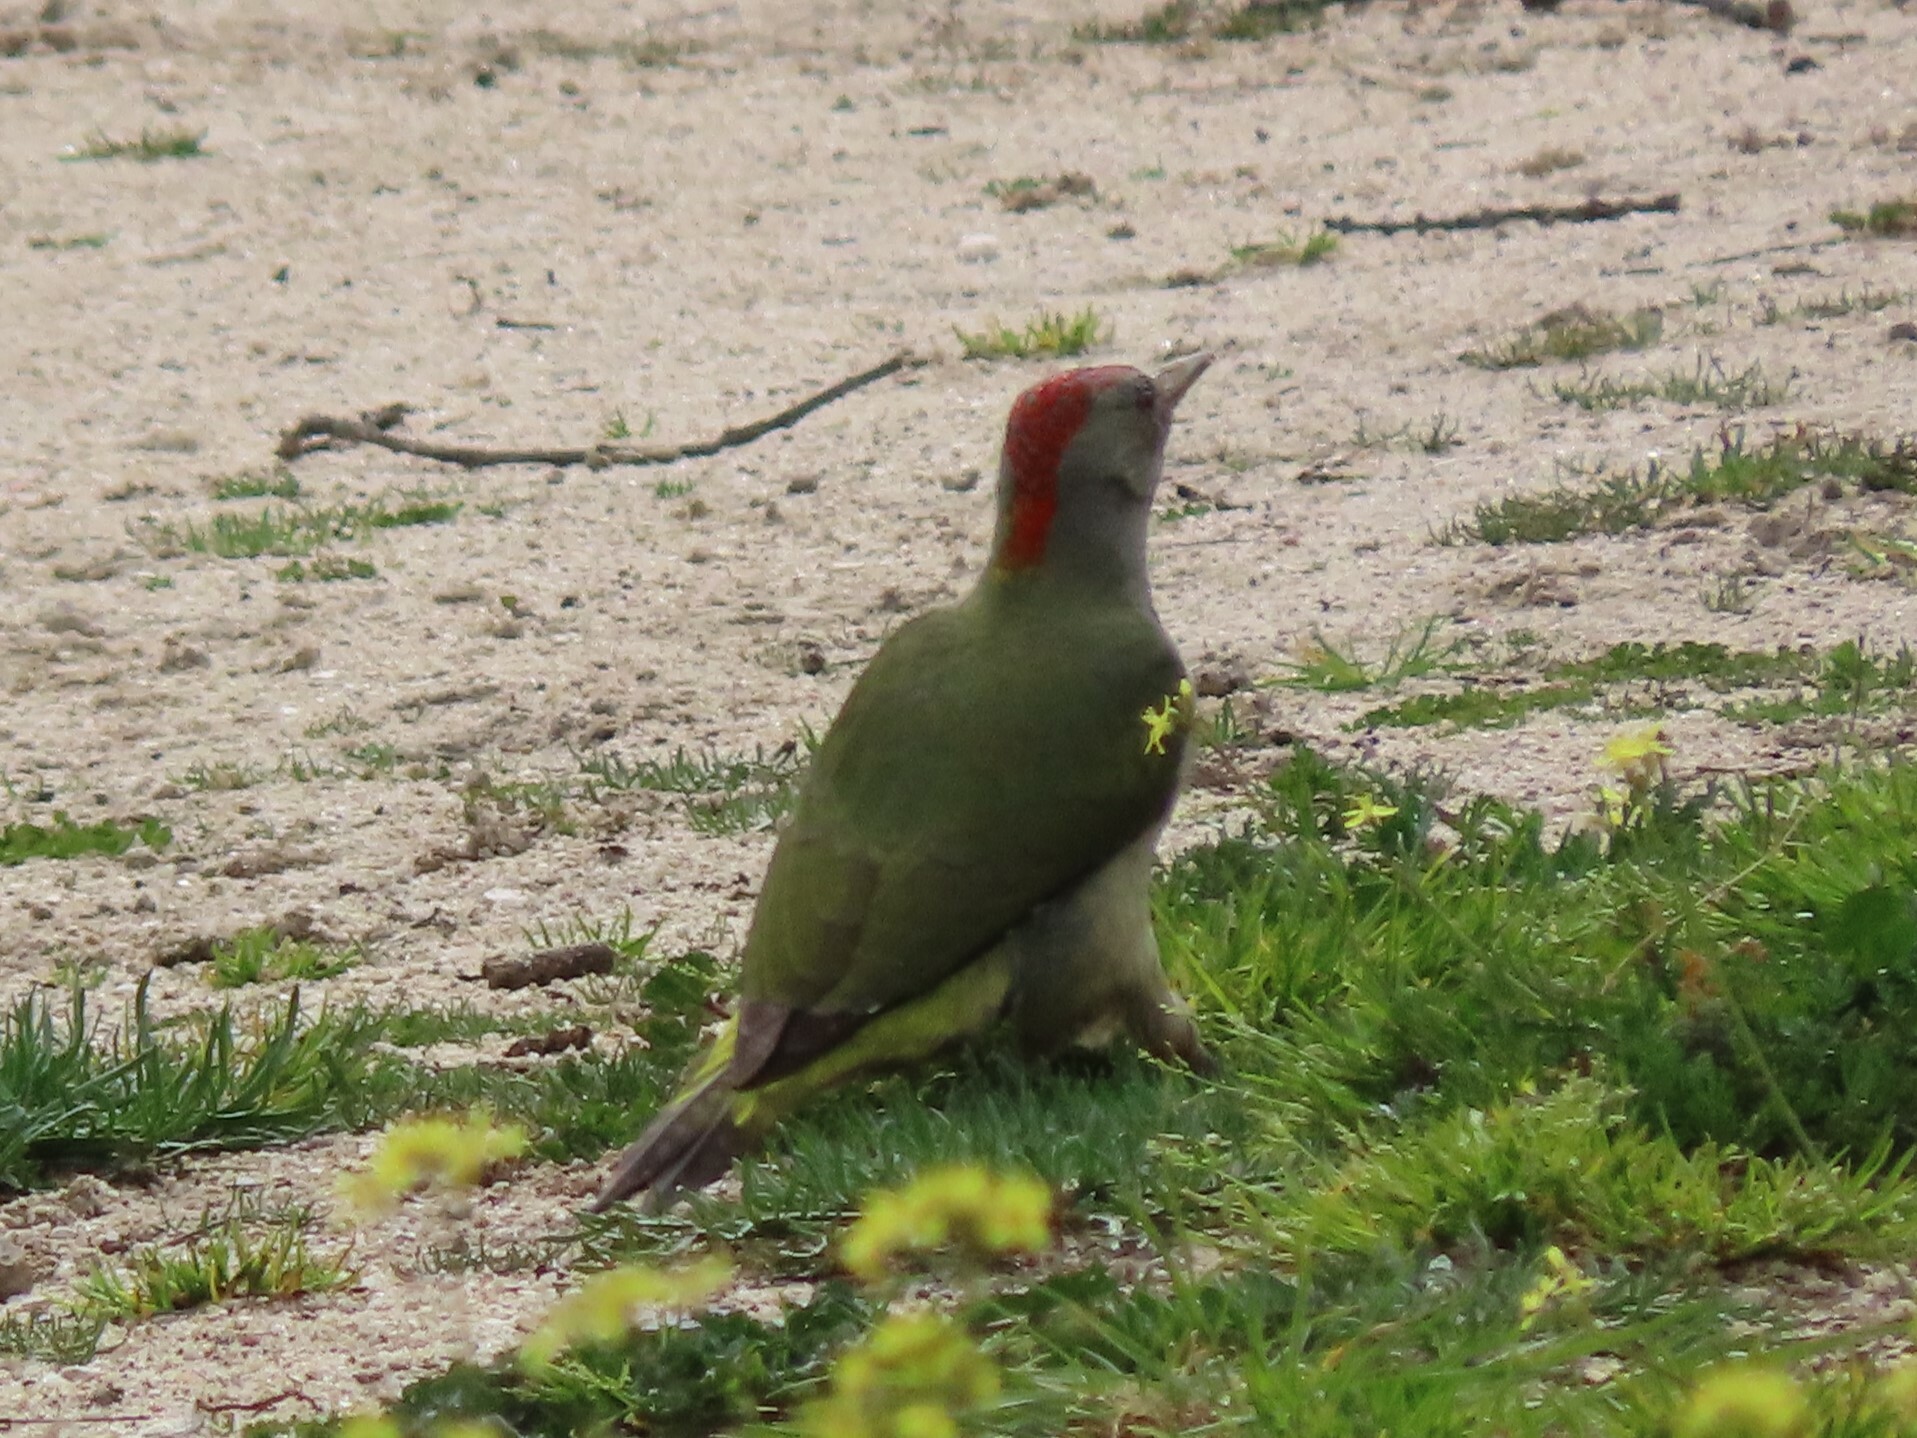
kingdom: Animalia
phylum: Chordata
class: Aves
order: Piciformes
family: Picidae
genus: Picus
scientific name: Picus sharpei
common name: Iberian green woodpecker
